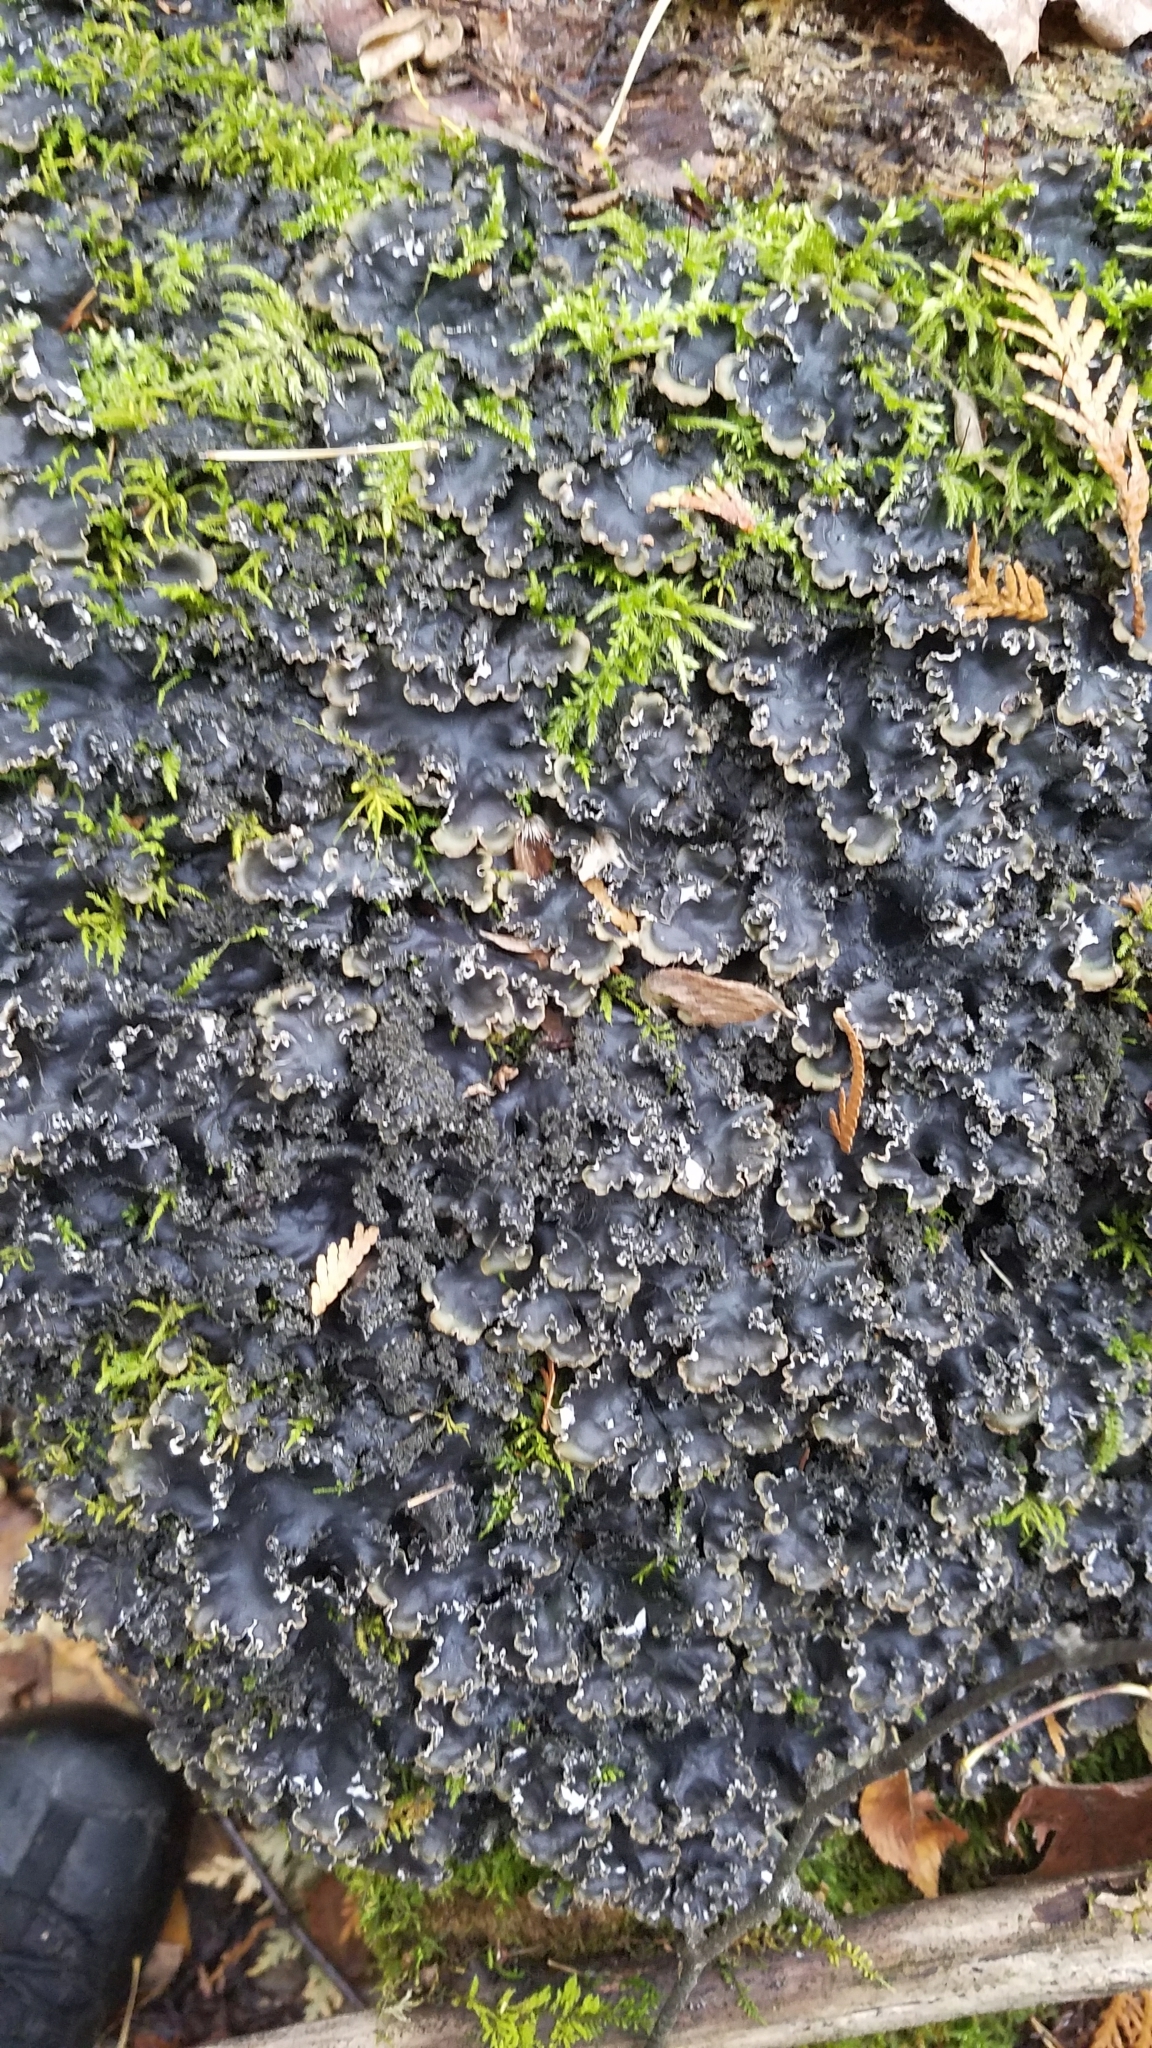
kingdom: Fungi
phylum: Ascomycota
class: Lecanoromycetes
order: Peltigerales
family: Peltigeraceae
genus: Peltigera
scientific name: Peltigera elisabethae
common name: Concentric pelt lichen
